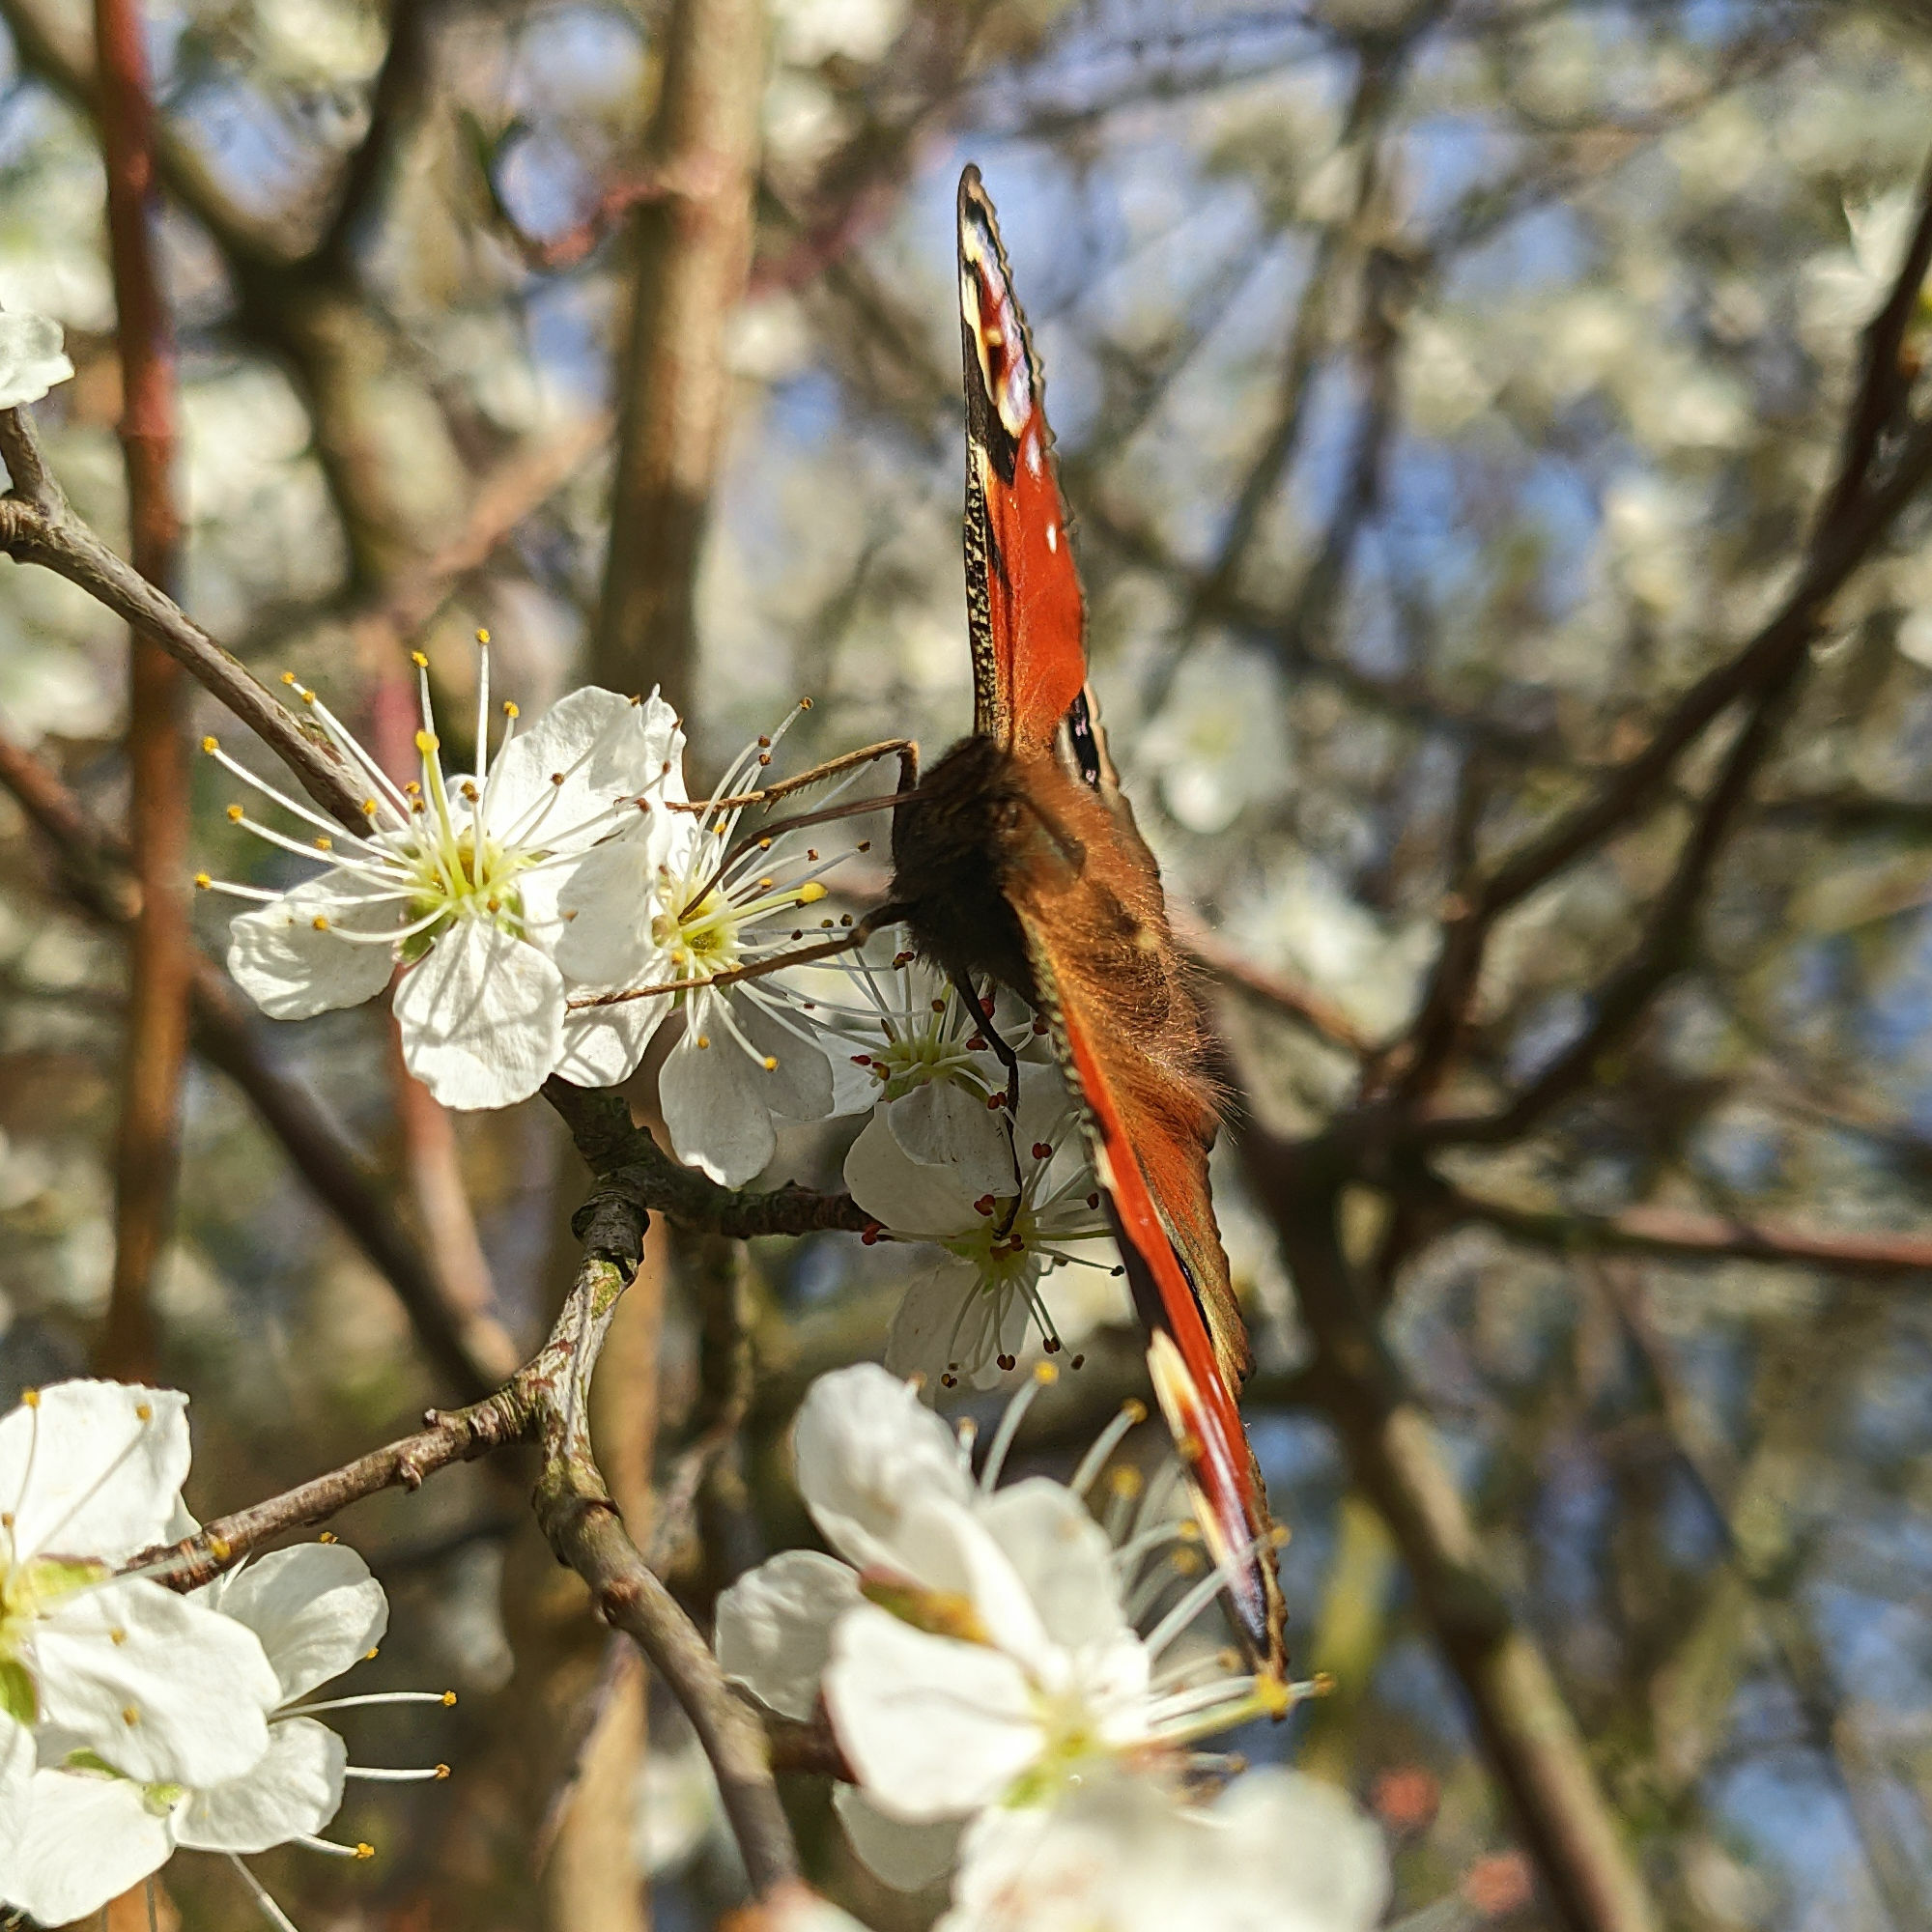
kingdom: Animalia
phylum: Arthropoda
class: Insecta
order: Lepidoptera
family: Nymphalidae
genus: Aglais
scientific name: Aglais io
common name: Peacock
